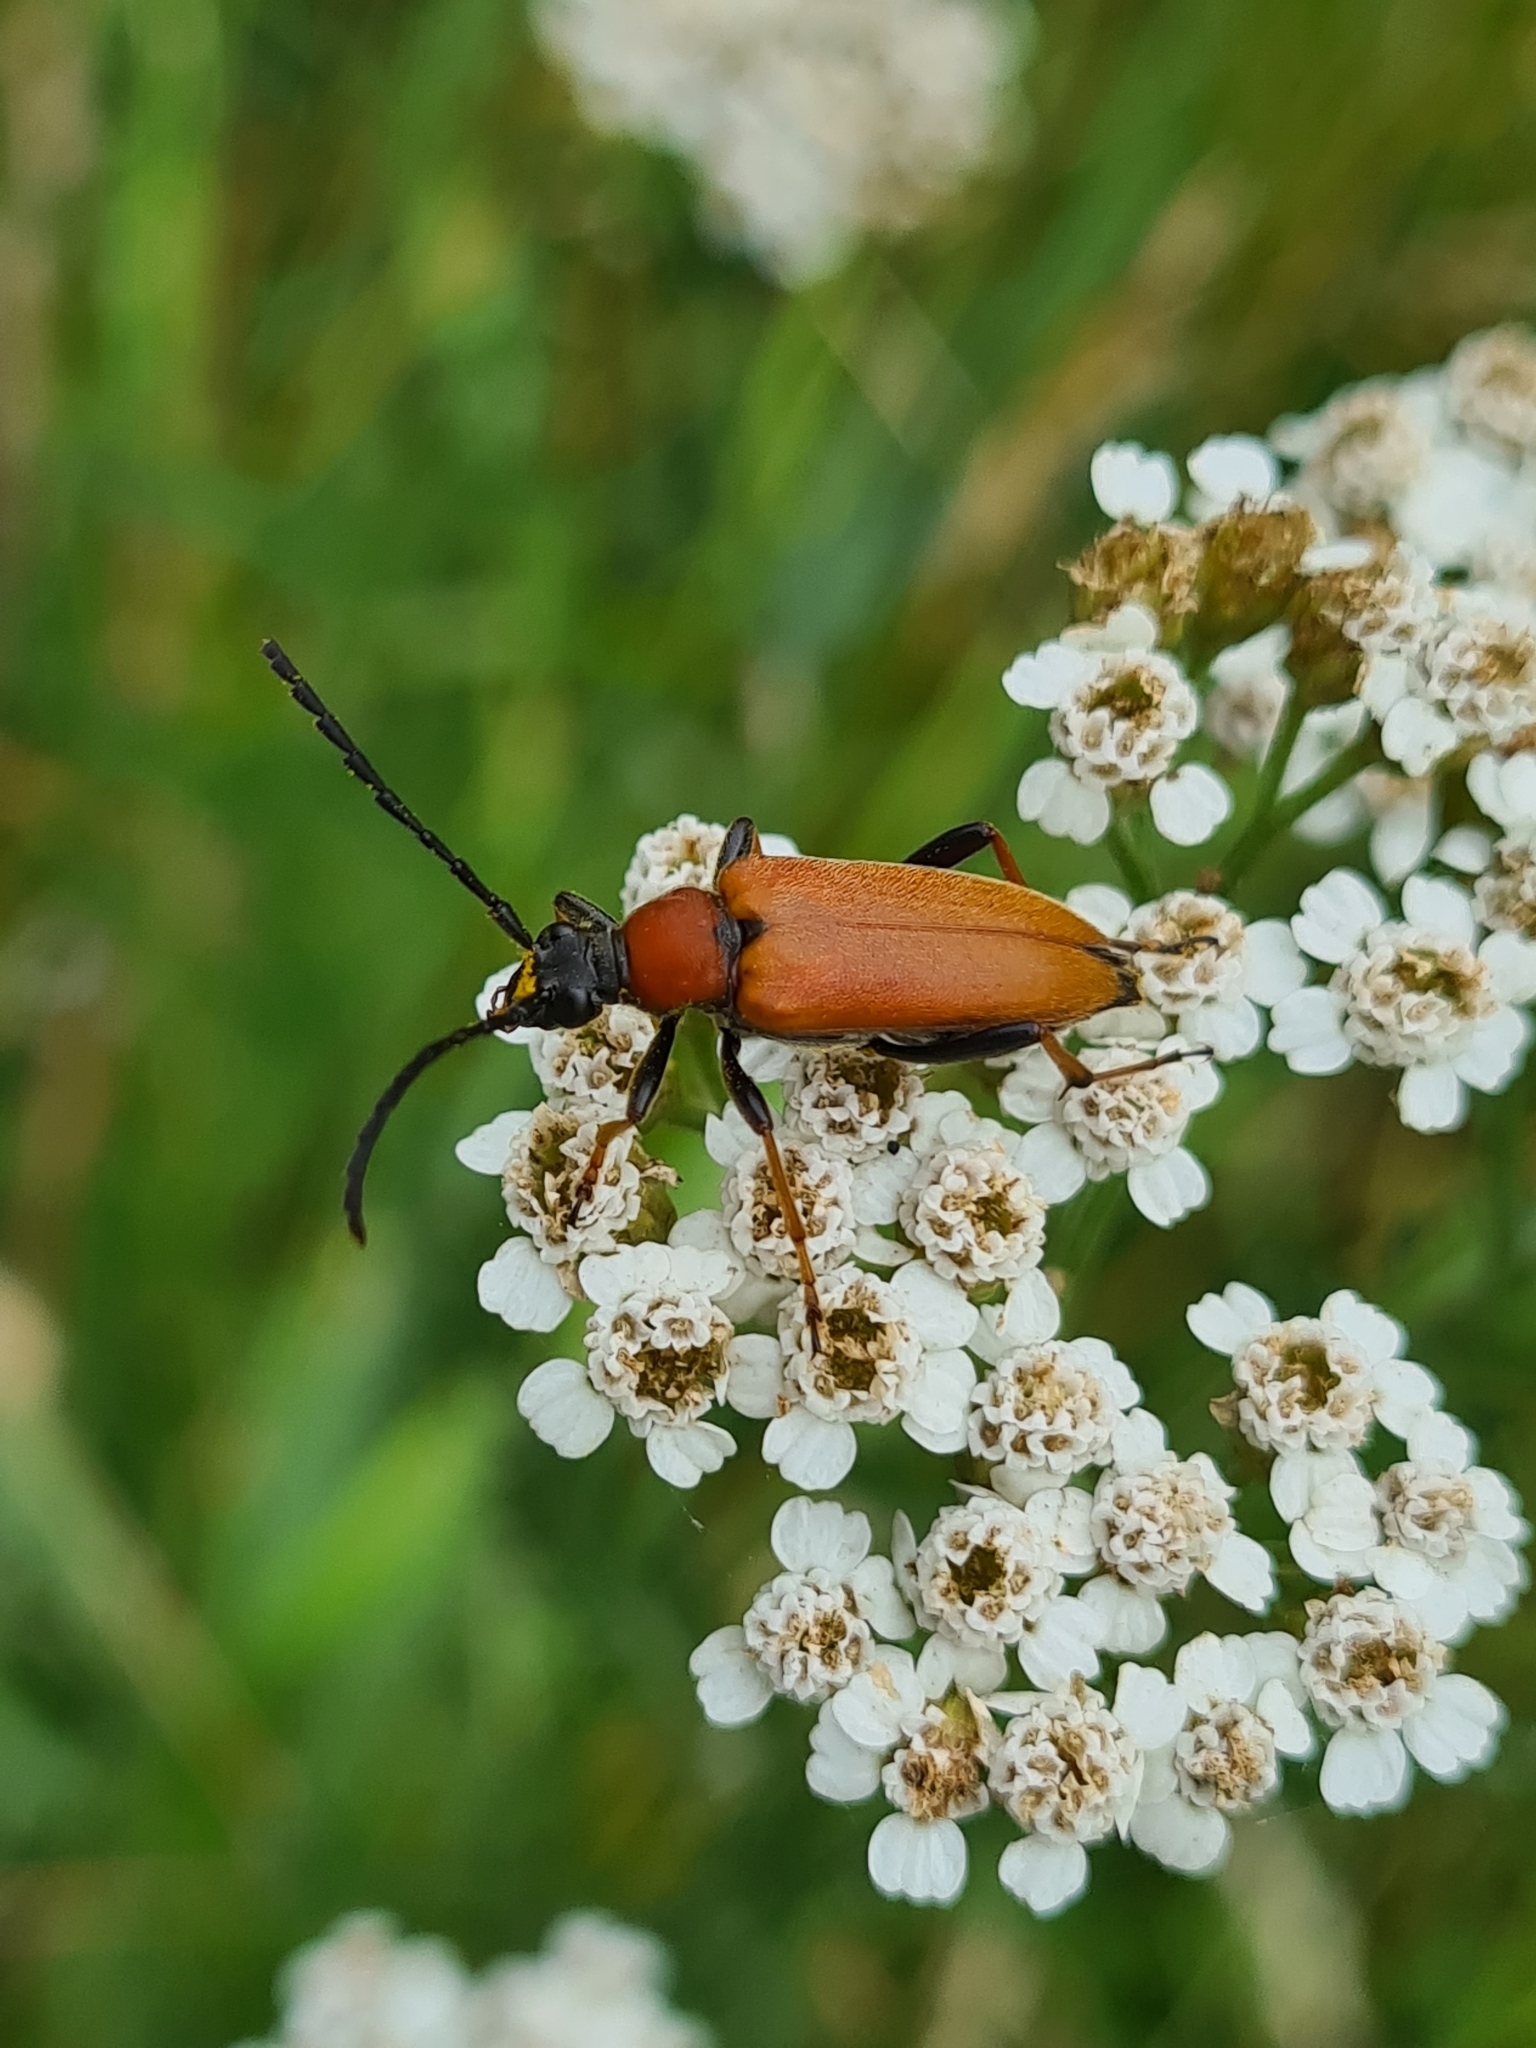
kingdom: Animalia
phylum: Arthropoda
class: Insecta
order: Coleoptera
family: Cerambycidae
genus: Stictoleptura
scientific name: Stictoleptura rubra
